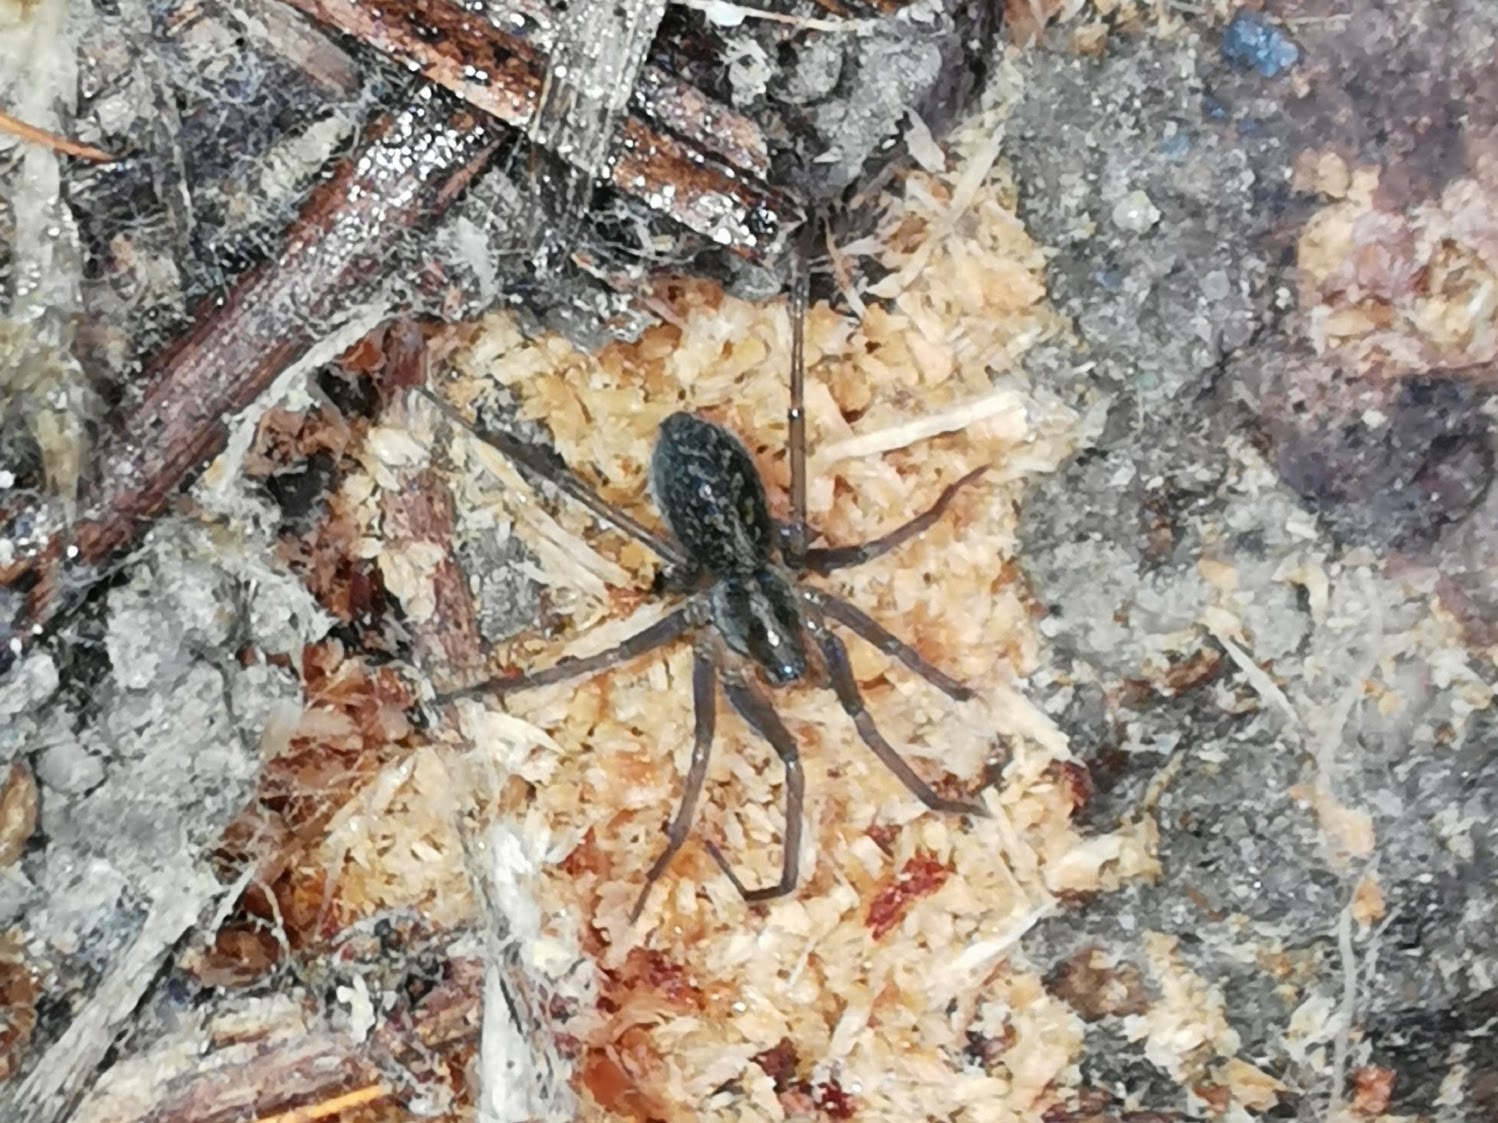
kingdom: Animalia
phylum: Arthropoda
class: Arachnida
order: Araneae
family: Agelenidae
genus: Eratigena
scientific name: Eratigena agrestis
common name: Hobo spider
